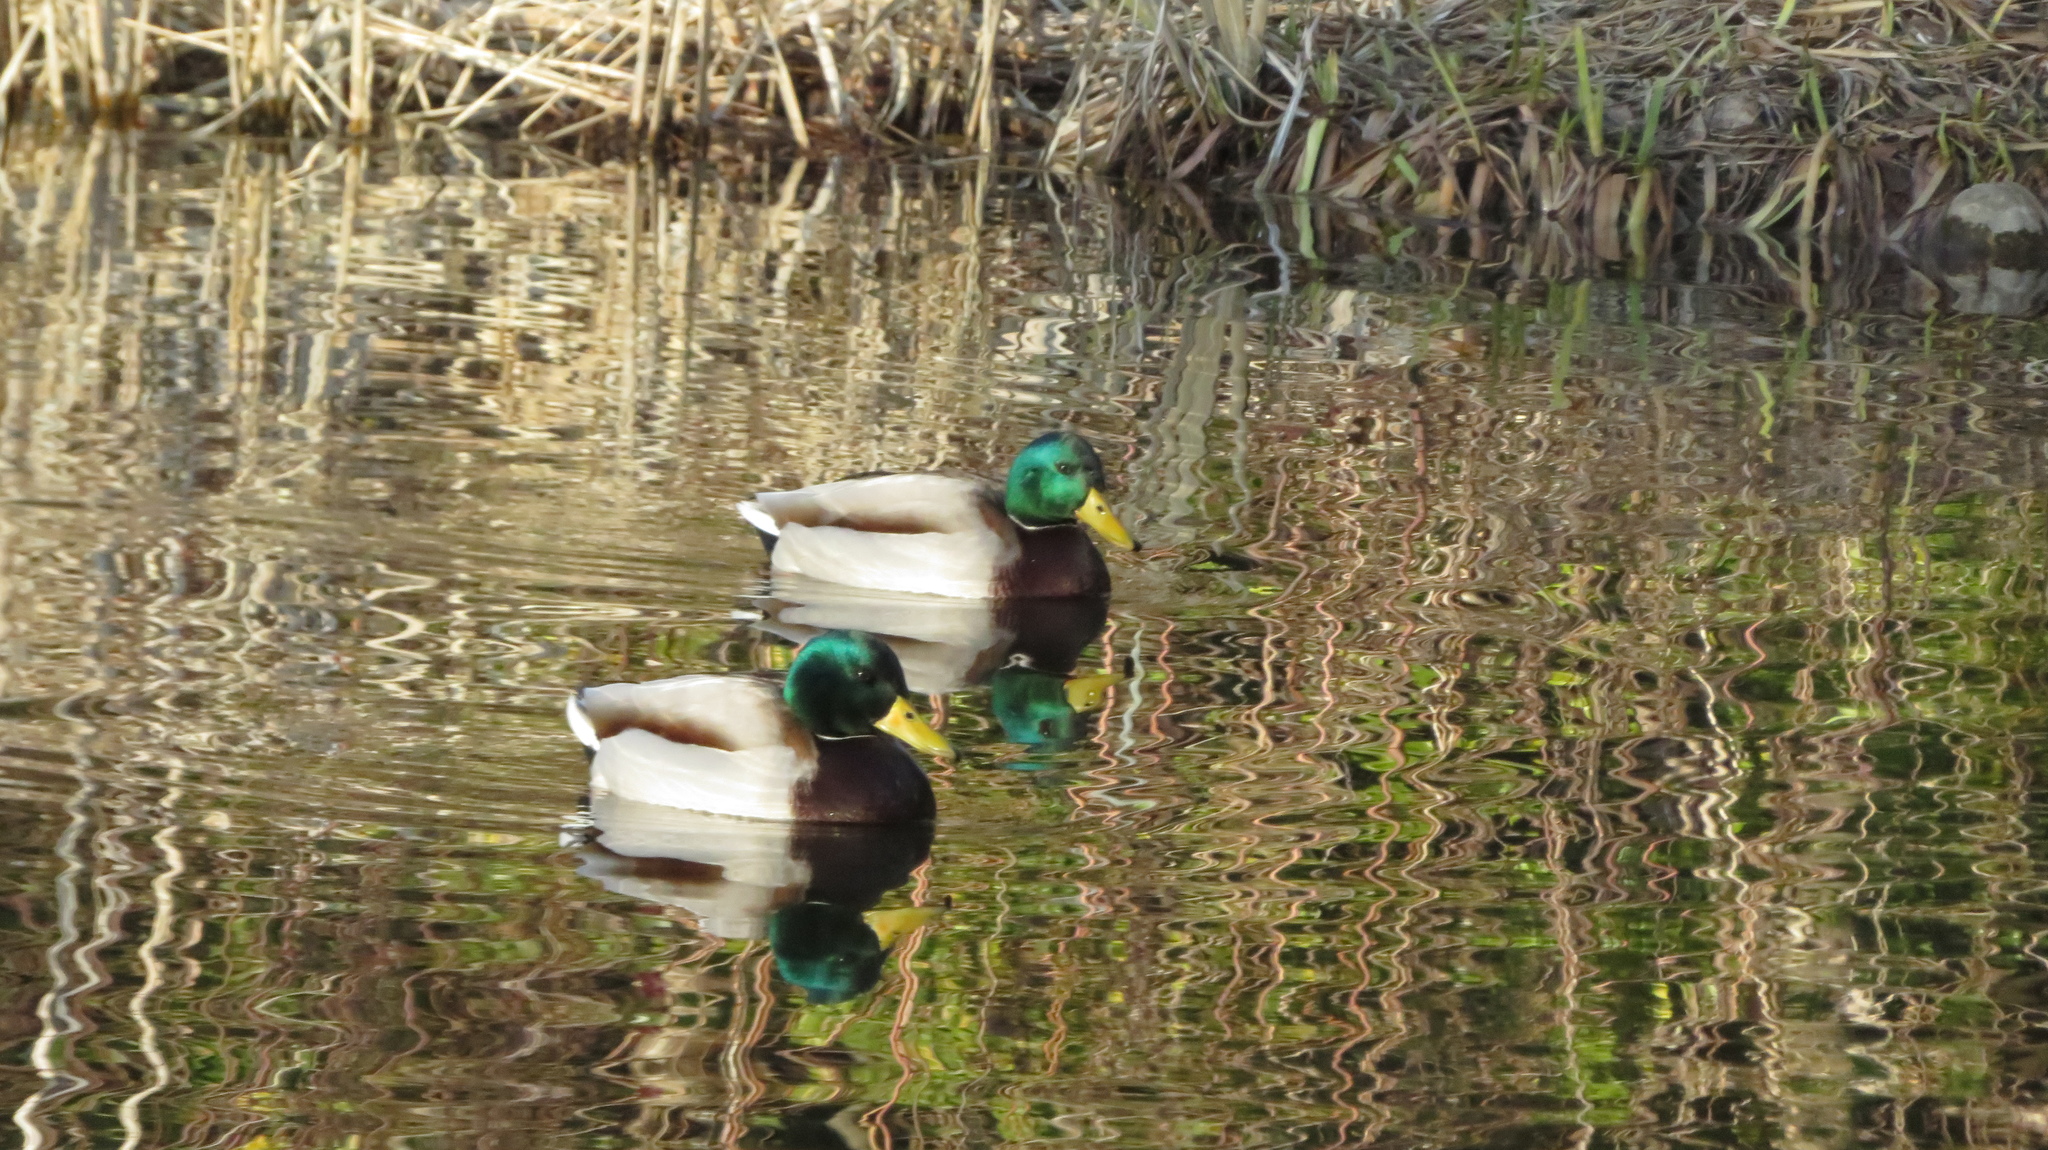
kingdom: Animalia
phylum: Chordata
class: Aves
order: Anseriformes
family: Anatidae
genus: Anas
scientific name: Anas platyrhynchos
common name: Mallard
